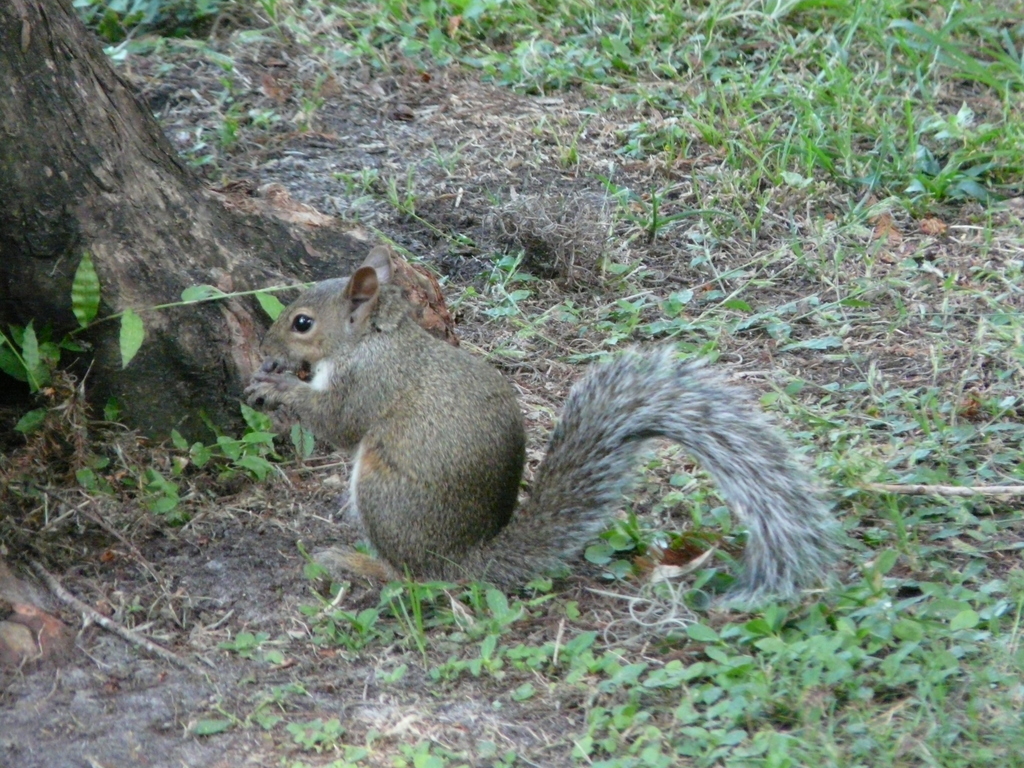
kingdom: Animalia
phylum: Chordata
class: Mammalia
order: Rodentia
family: Sciuridae
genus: Sciurus
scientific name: Sciurus carolinensis
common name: Eastern gray squirrel
